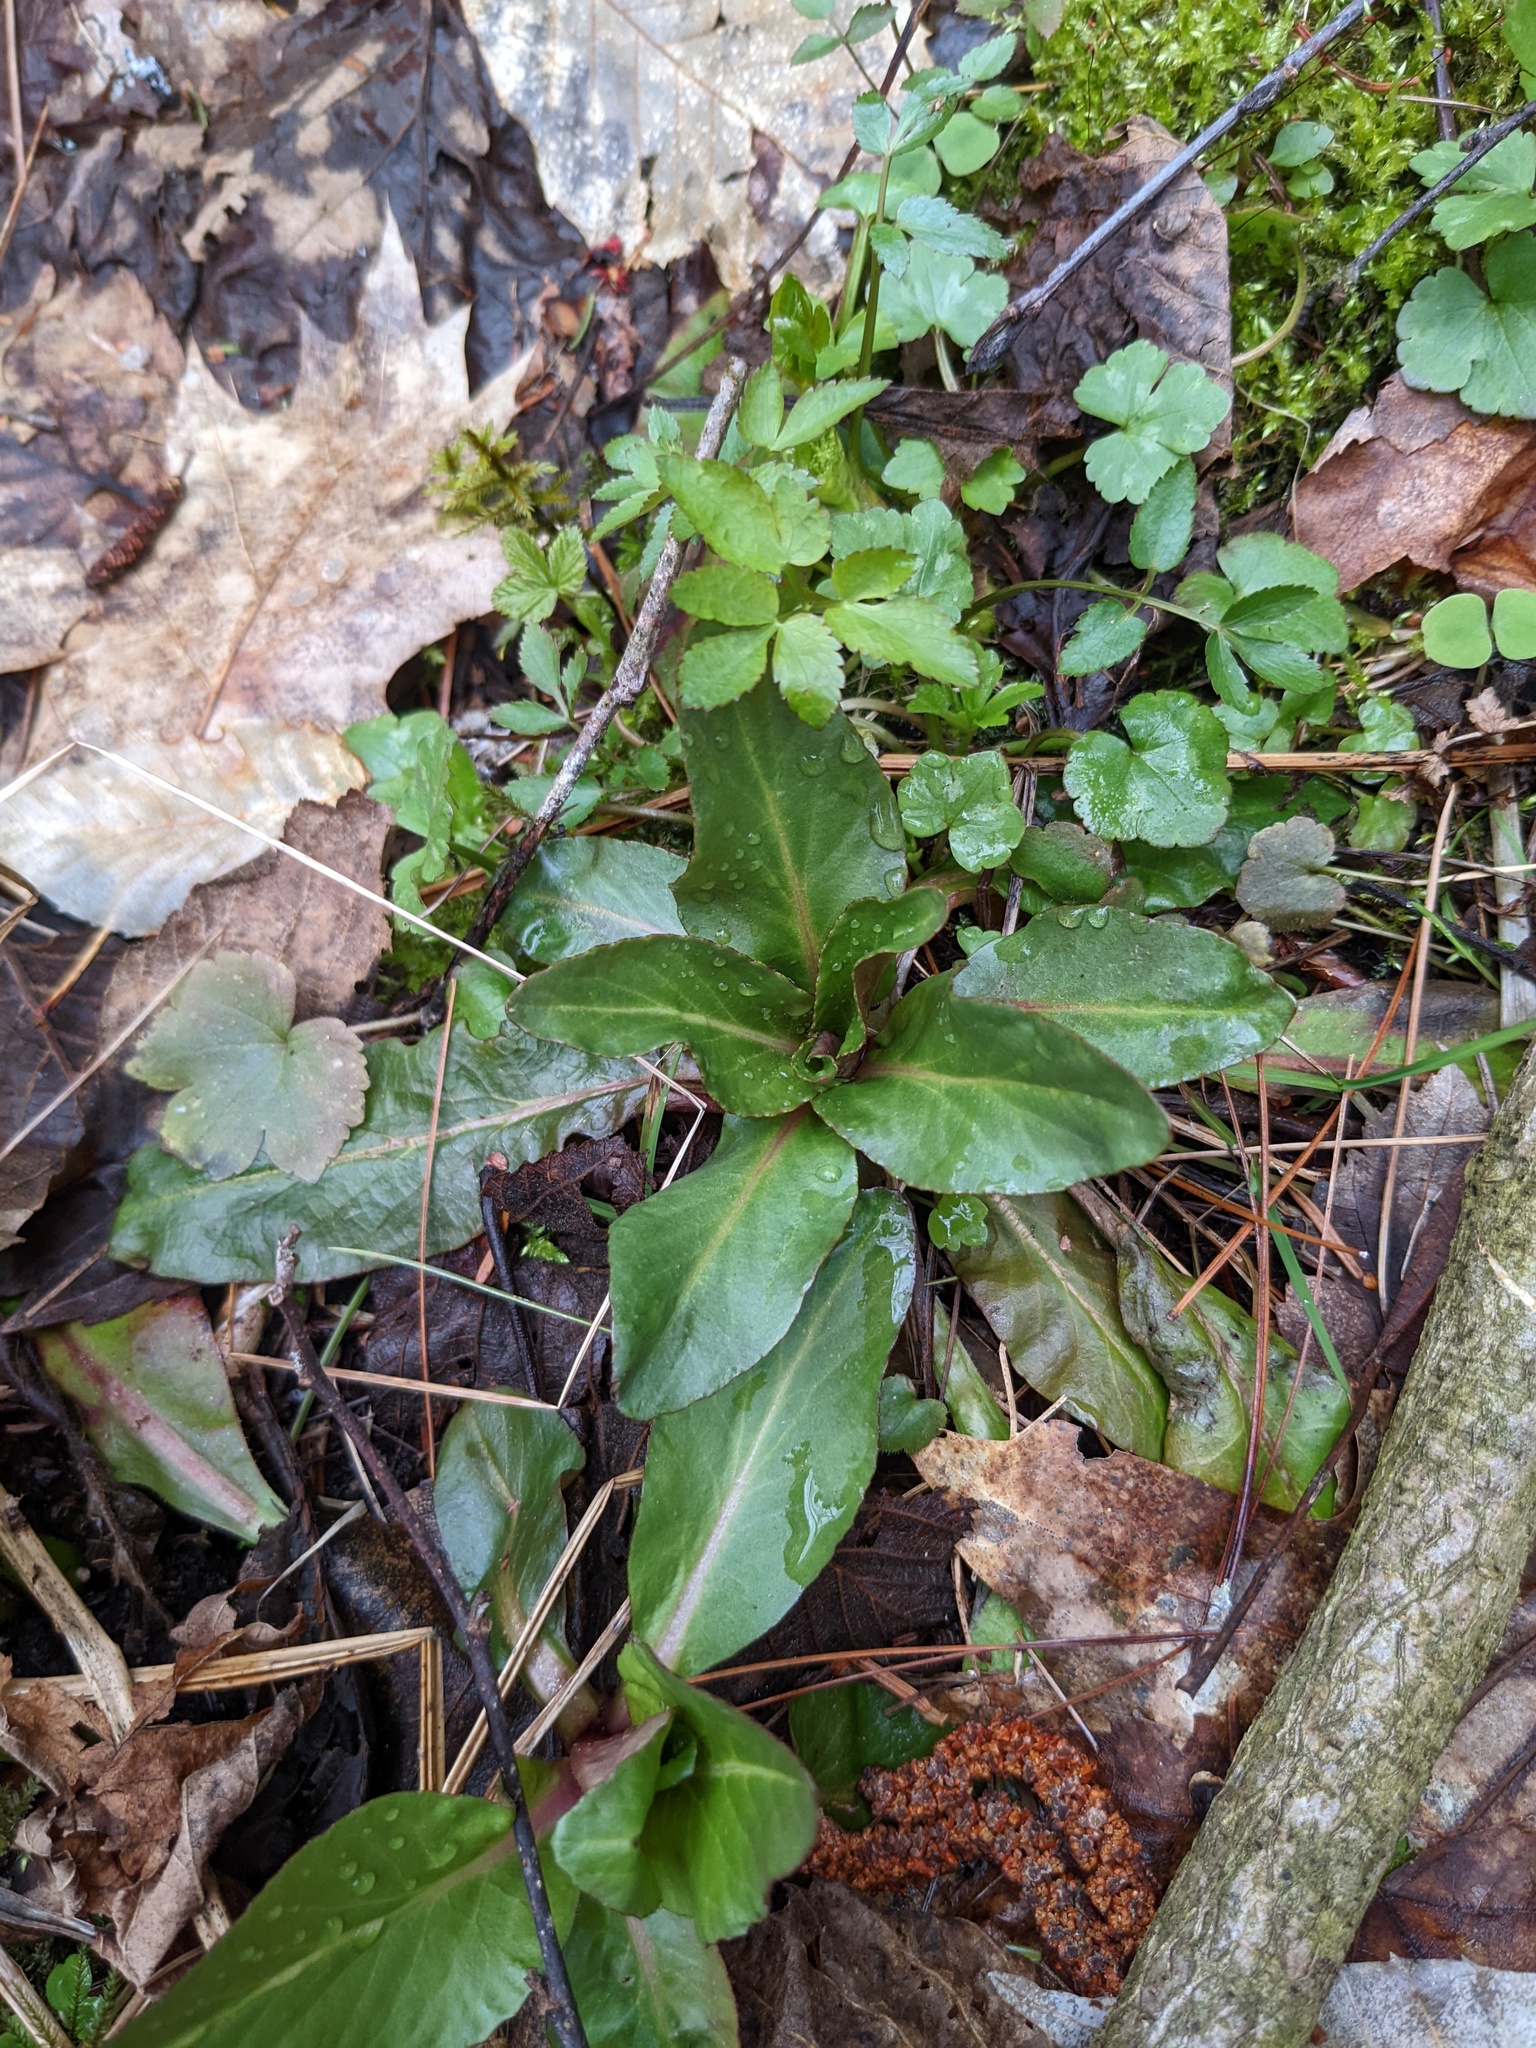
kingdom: Plantae
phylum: Tracheophyta
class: Magnoliopsida
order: Saxifragales
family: Saxifragaceae
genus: Micranthes
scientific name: Micranthes pensylvanica
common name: Marsh saxifrage
